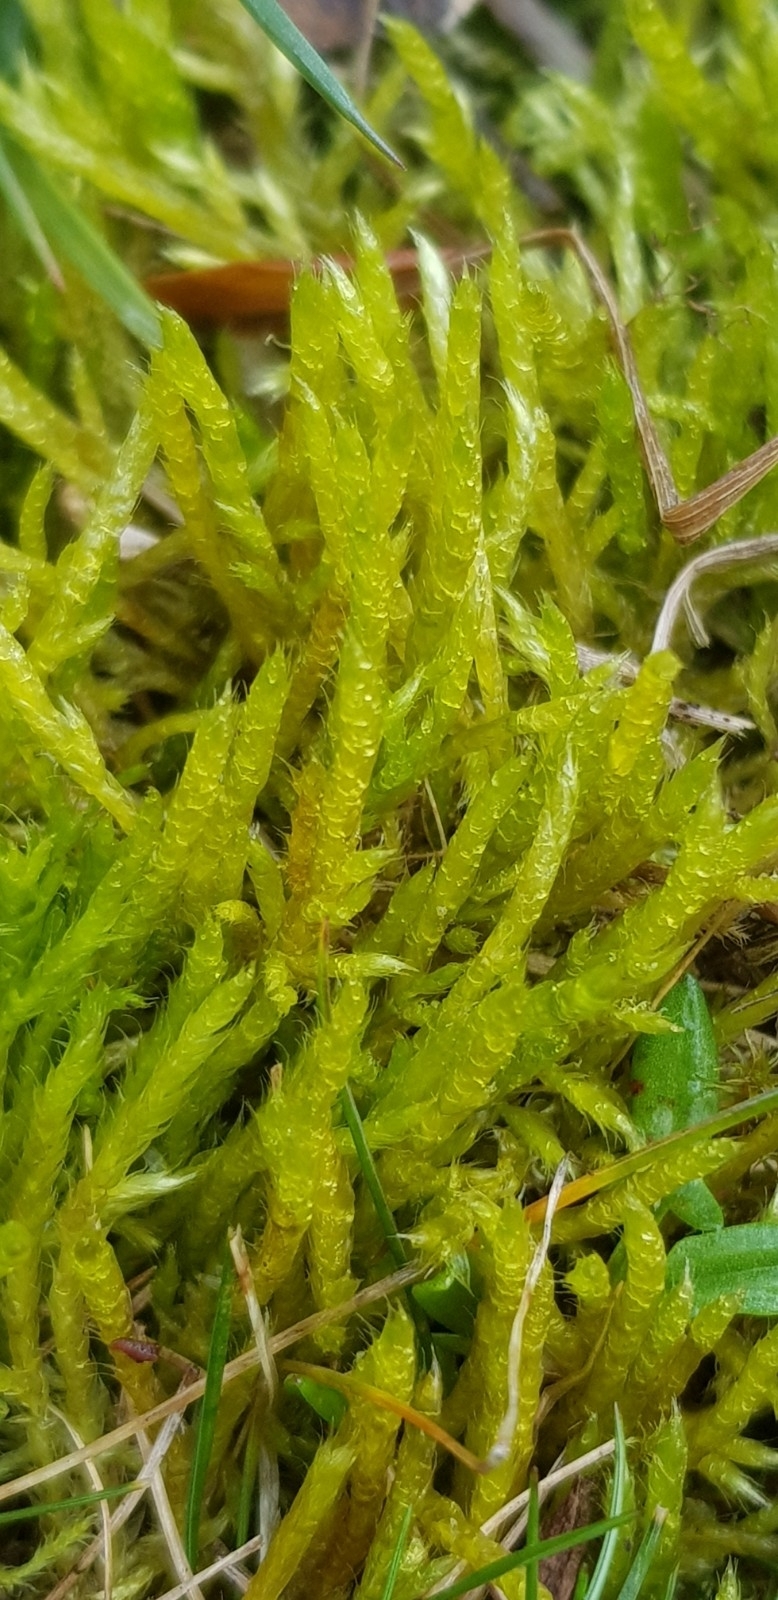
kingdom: Plantae
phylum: Bryophyta
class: Bryopsida
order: Hypnales
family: Brachytheciaceae
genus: Brachythecium
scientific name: Brachythecium albicans
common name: Whitish ragged moss
